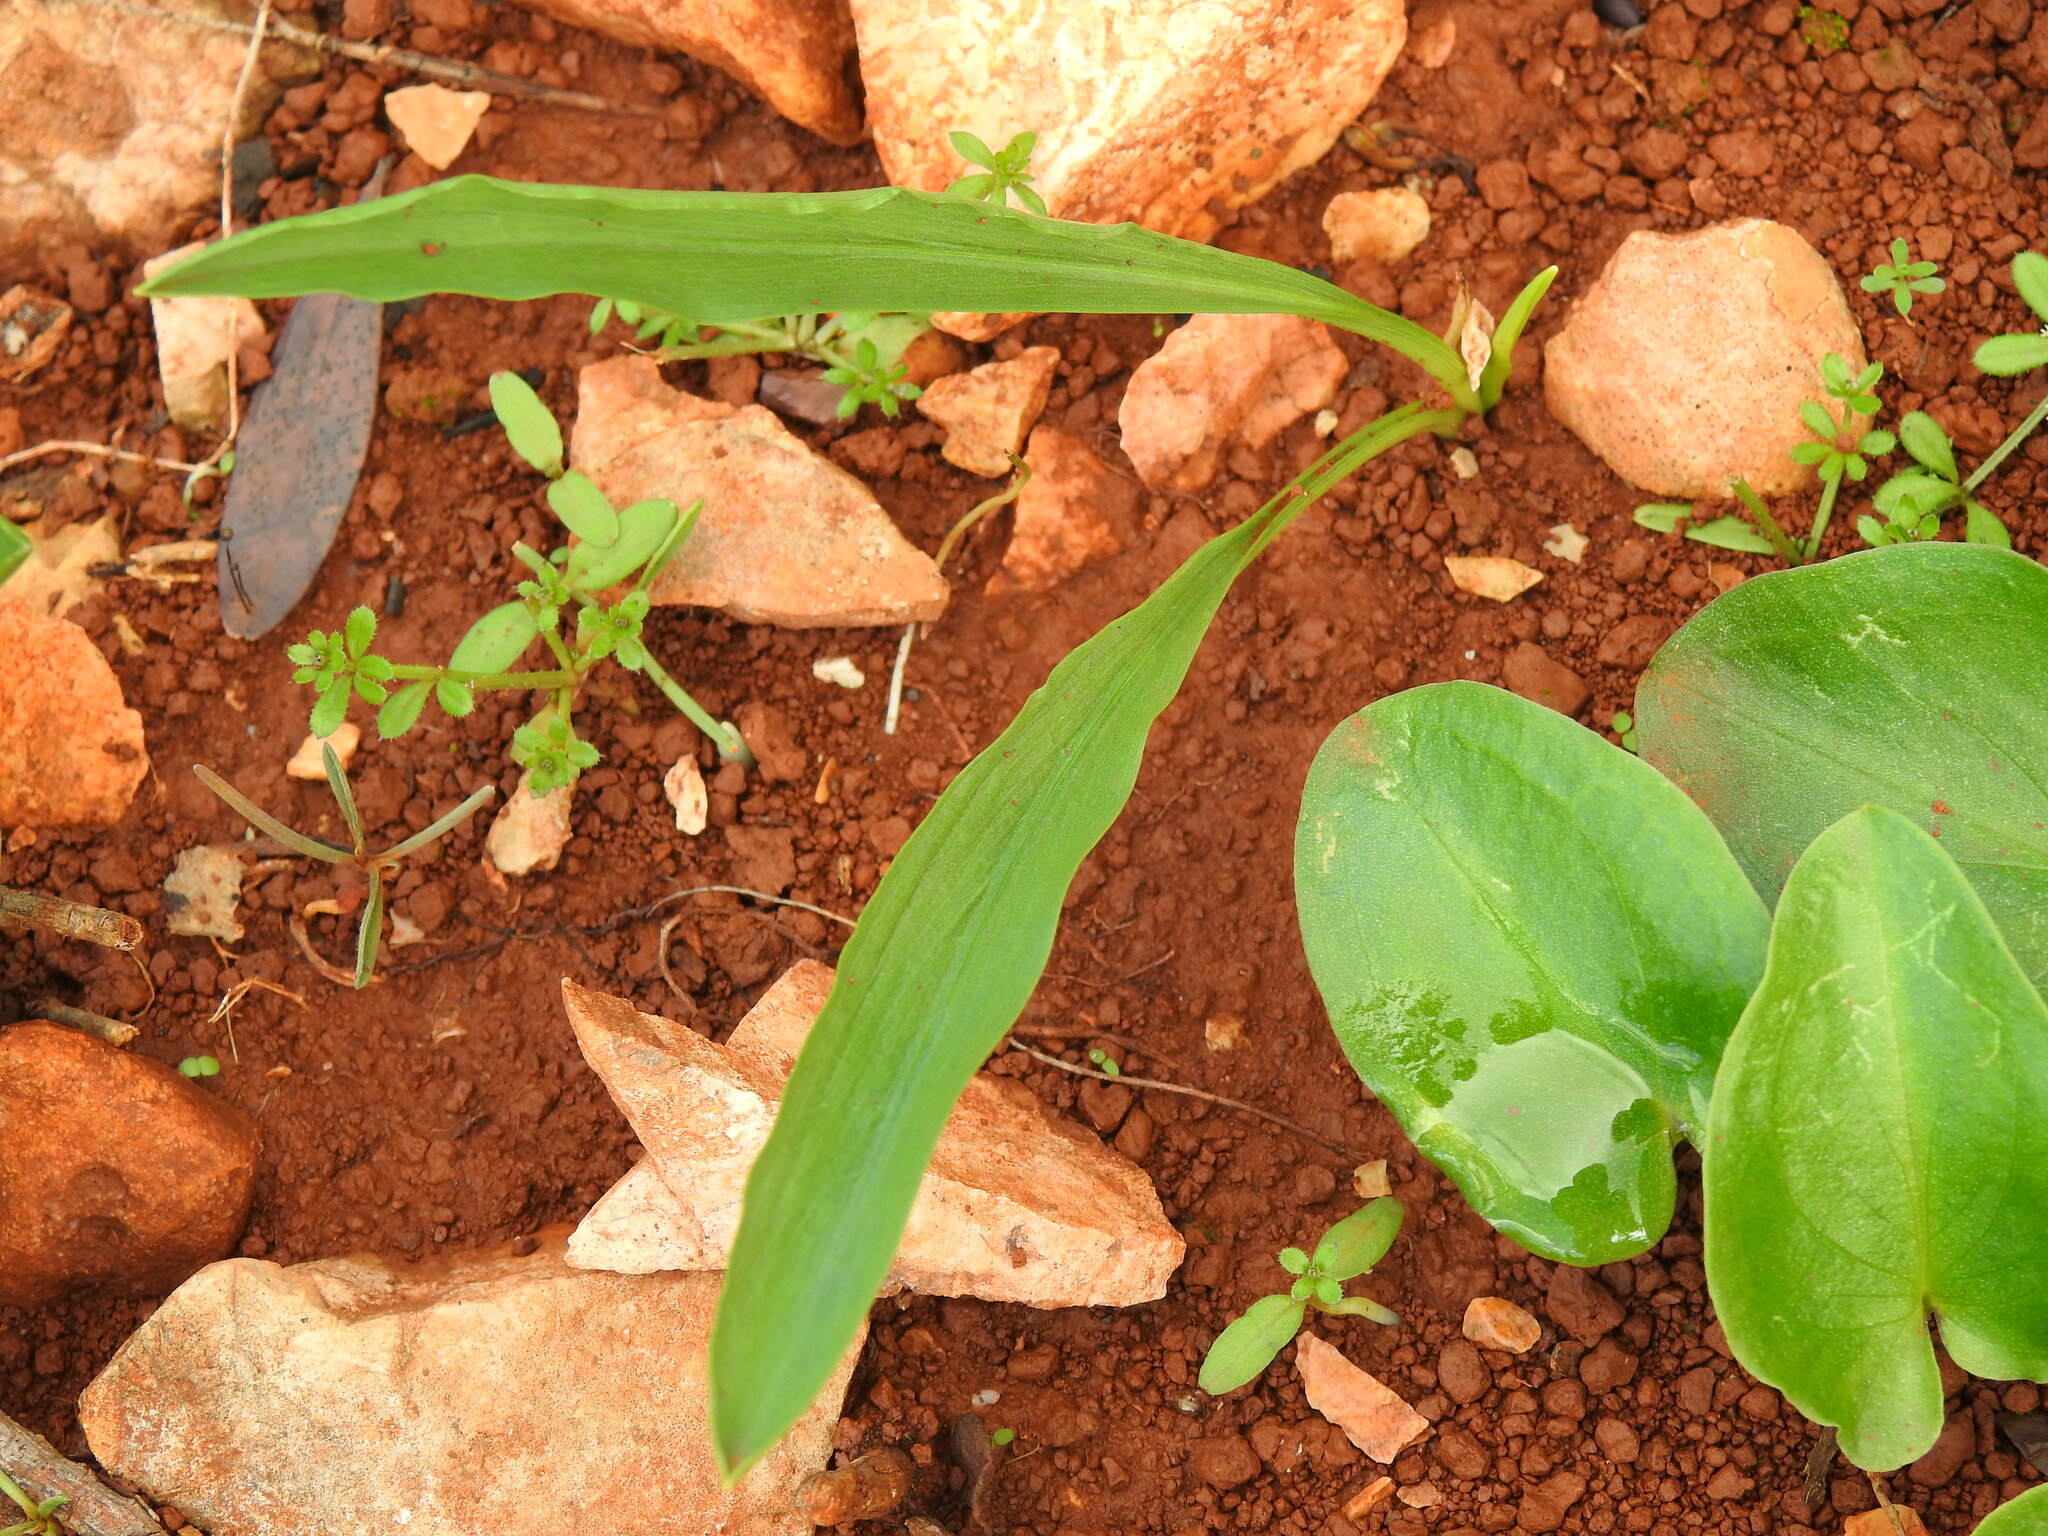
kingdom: Plantae
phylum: Tracheophyta
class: Liliopsida
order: Alismatales
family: Araceae
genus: Biarum
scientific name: Biarum tenuifolium
